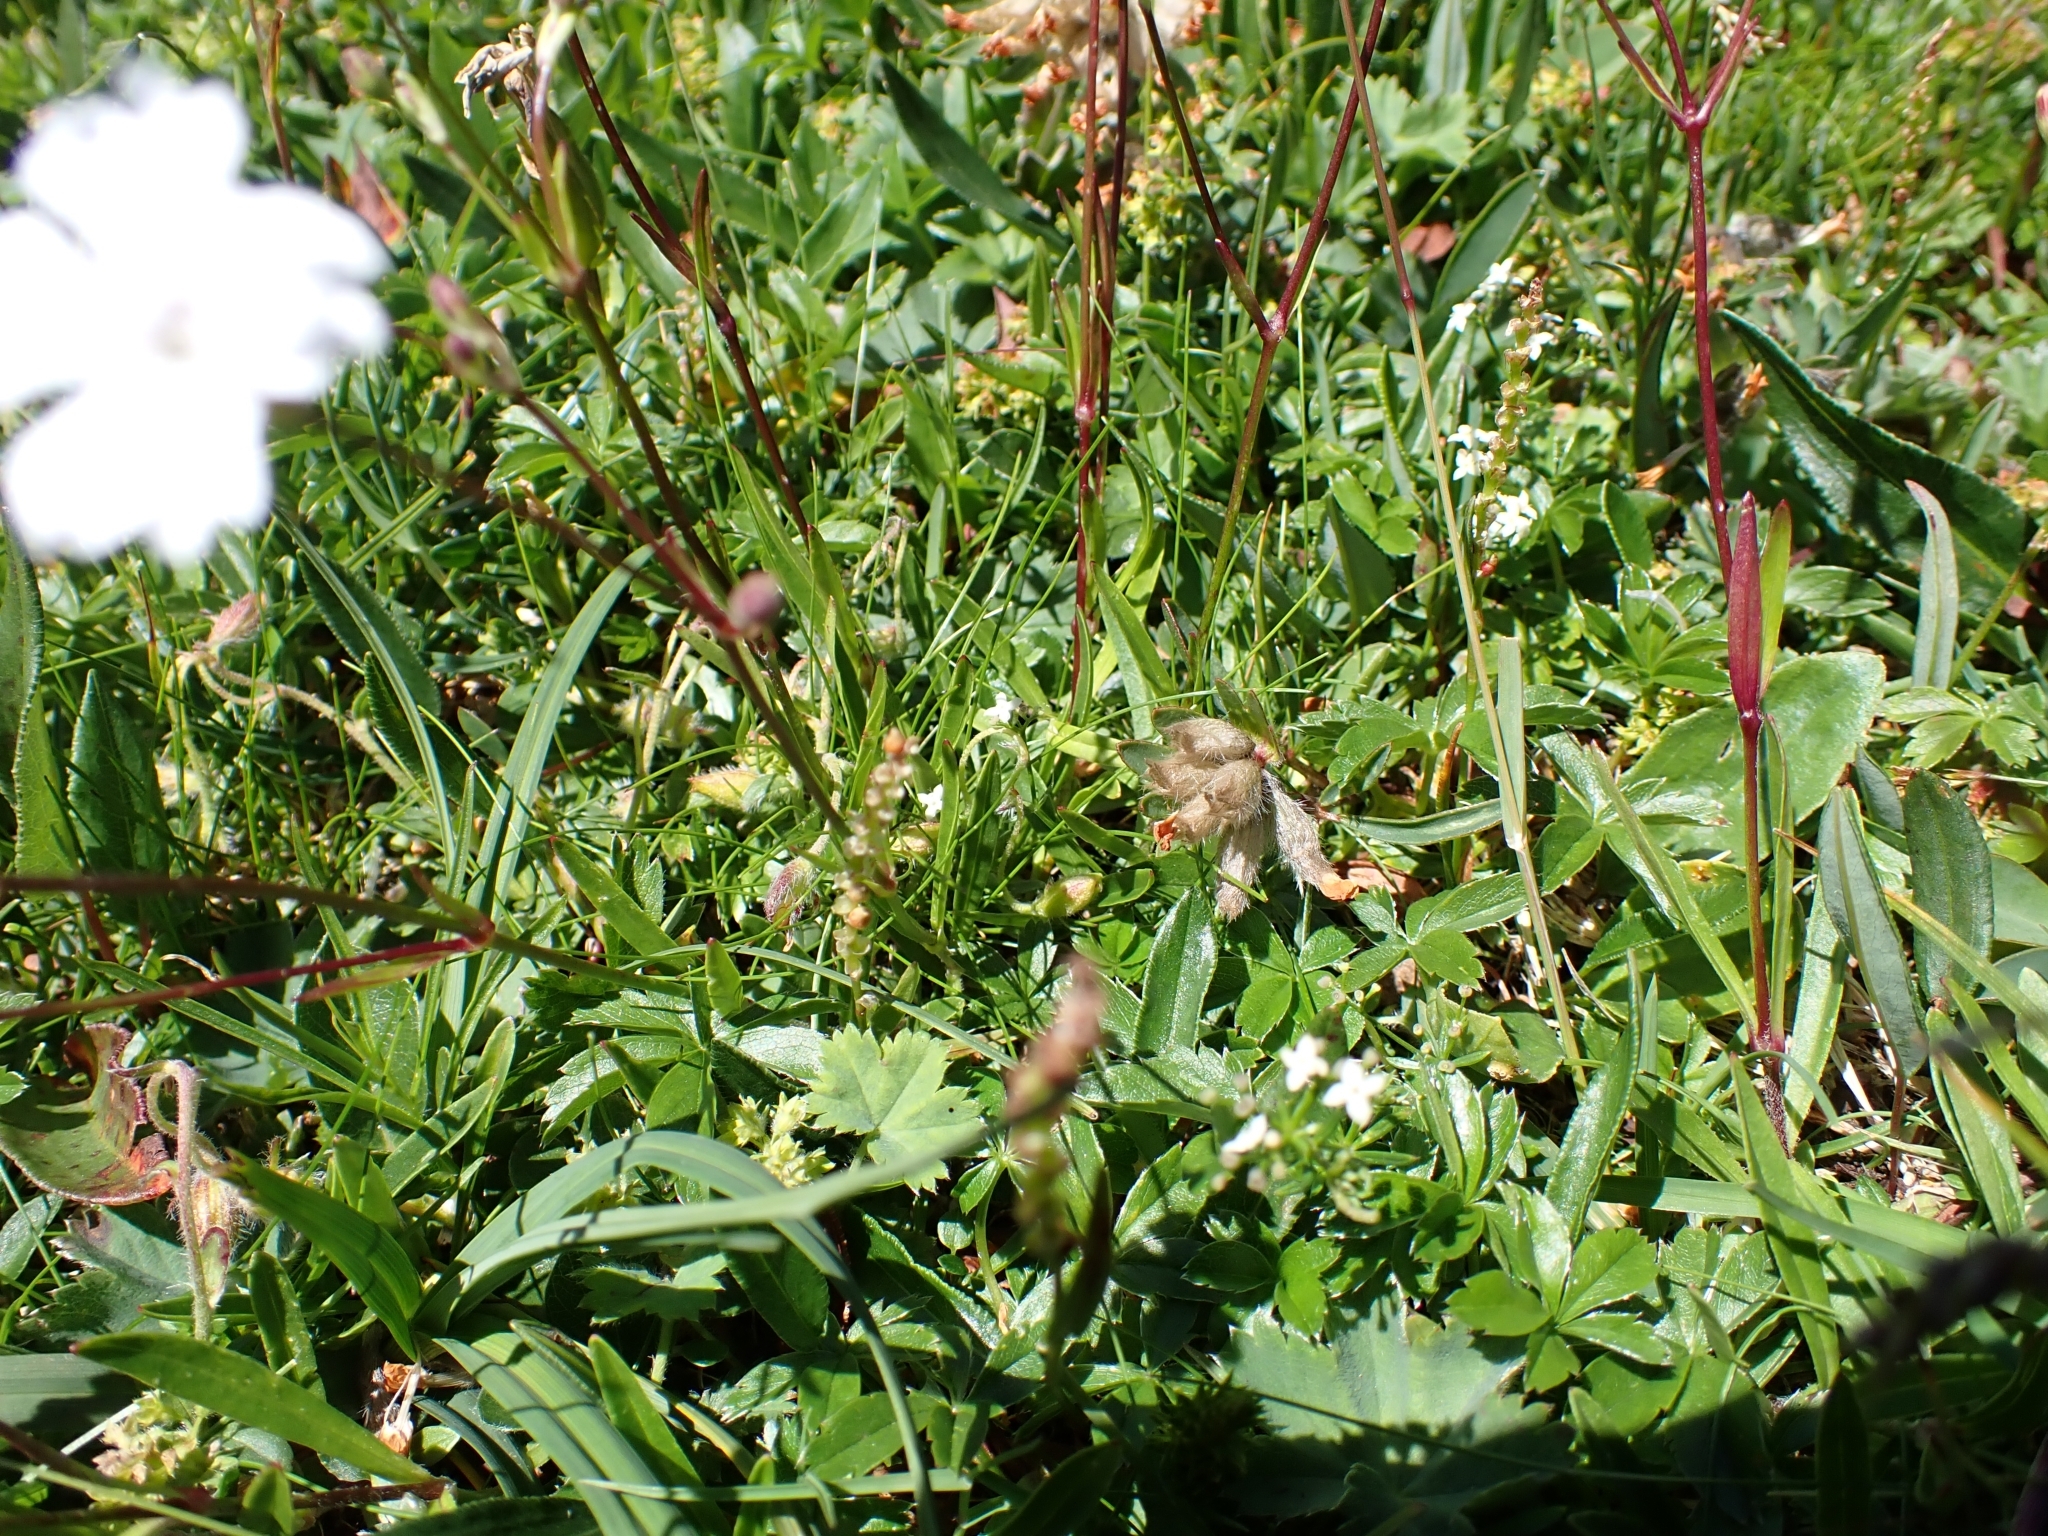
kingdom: Plantae
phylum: Tracheophyta
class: Magnoliopsida
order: Caryophyllales
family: Caryophyllaceae
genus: Heliosperma
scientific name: Heliosperma alpestre
